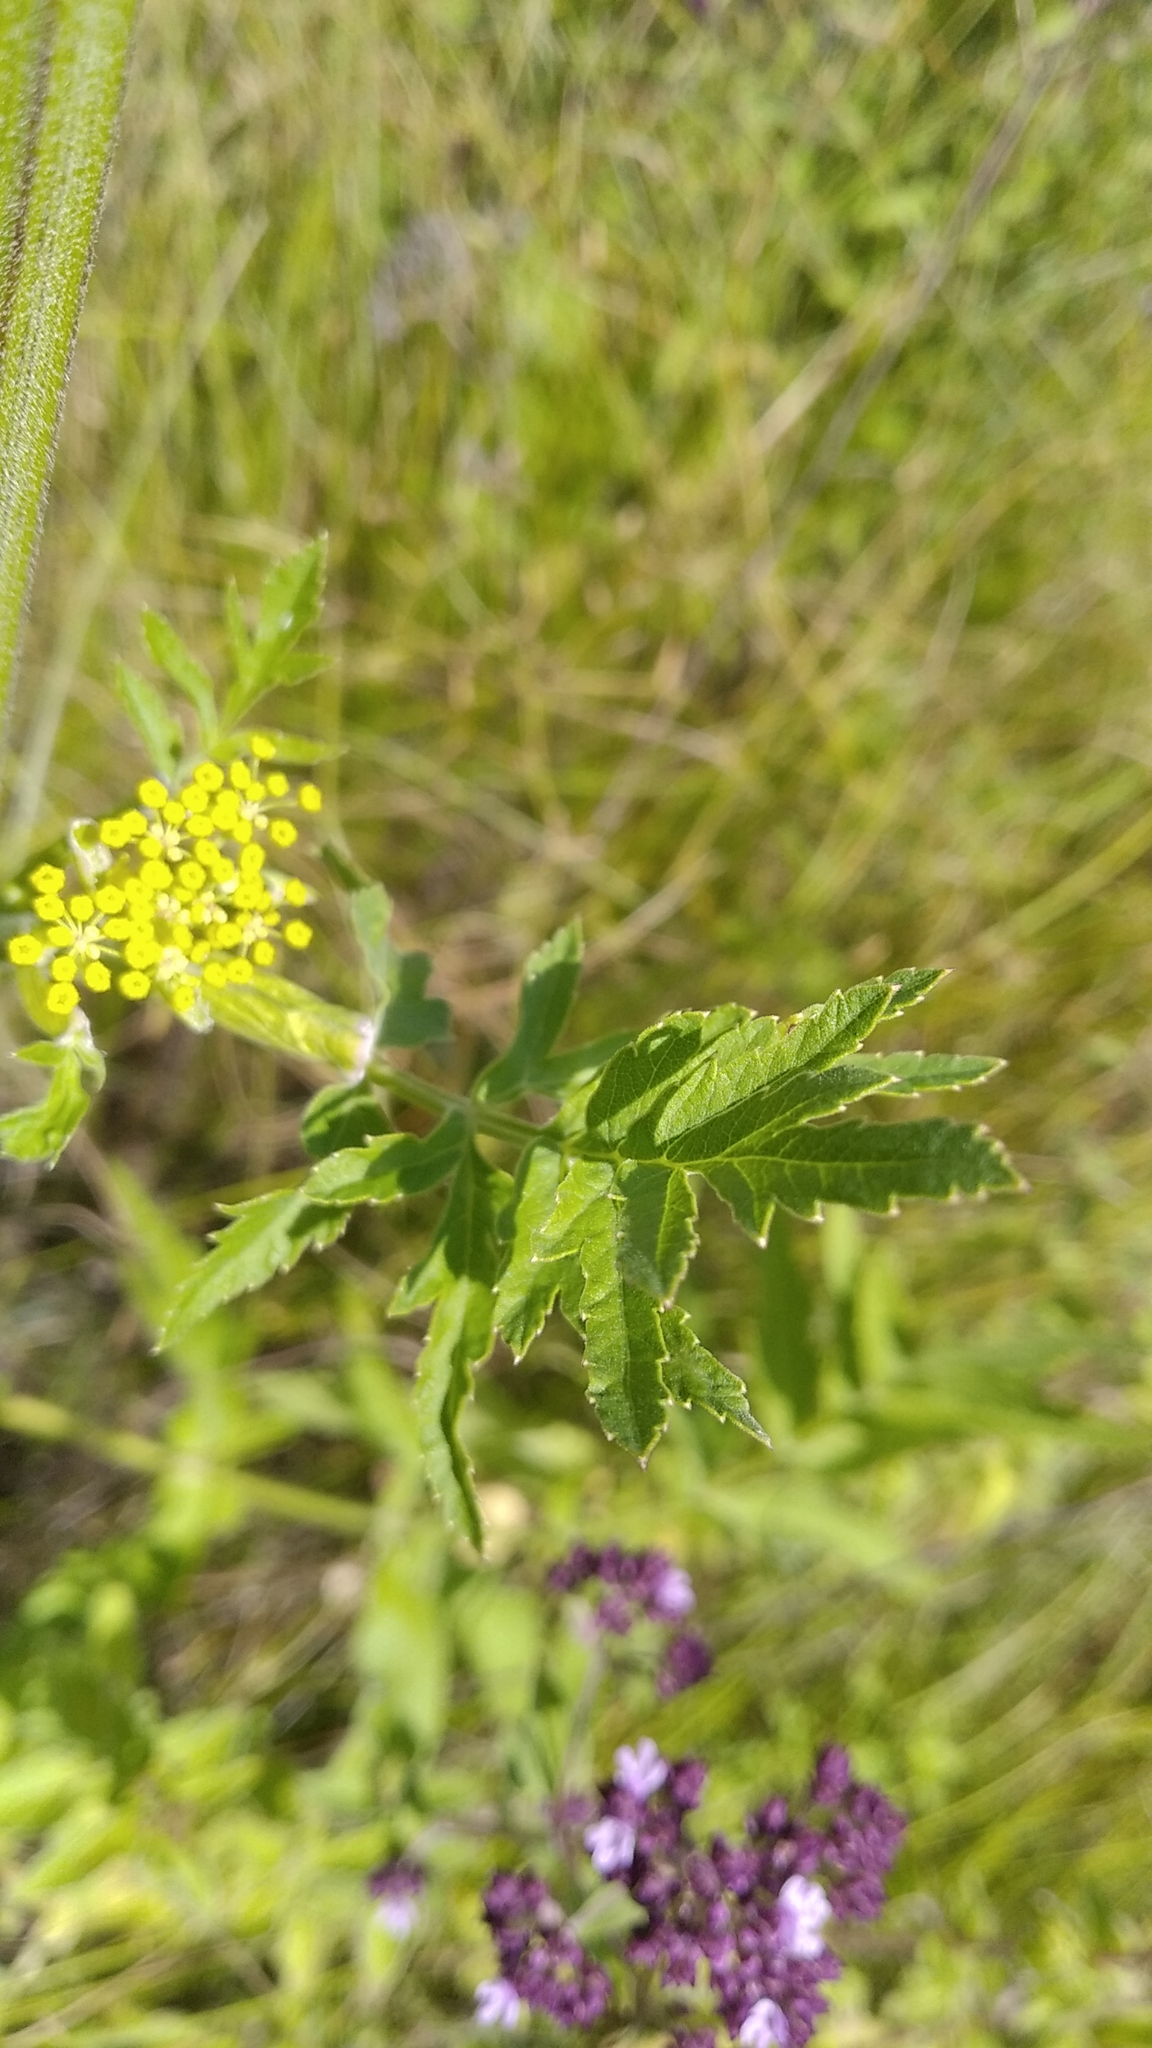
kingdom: Plantae
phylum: Tracheophyta
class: Magnoliopsida
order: Apiales
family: Apiaceae
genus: Pastinaca
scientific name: Pastinaca sativa
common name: Wild parsnip
